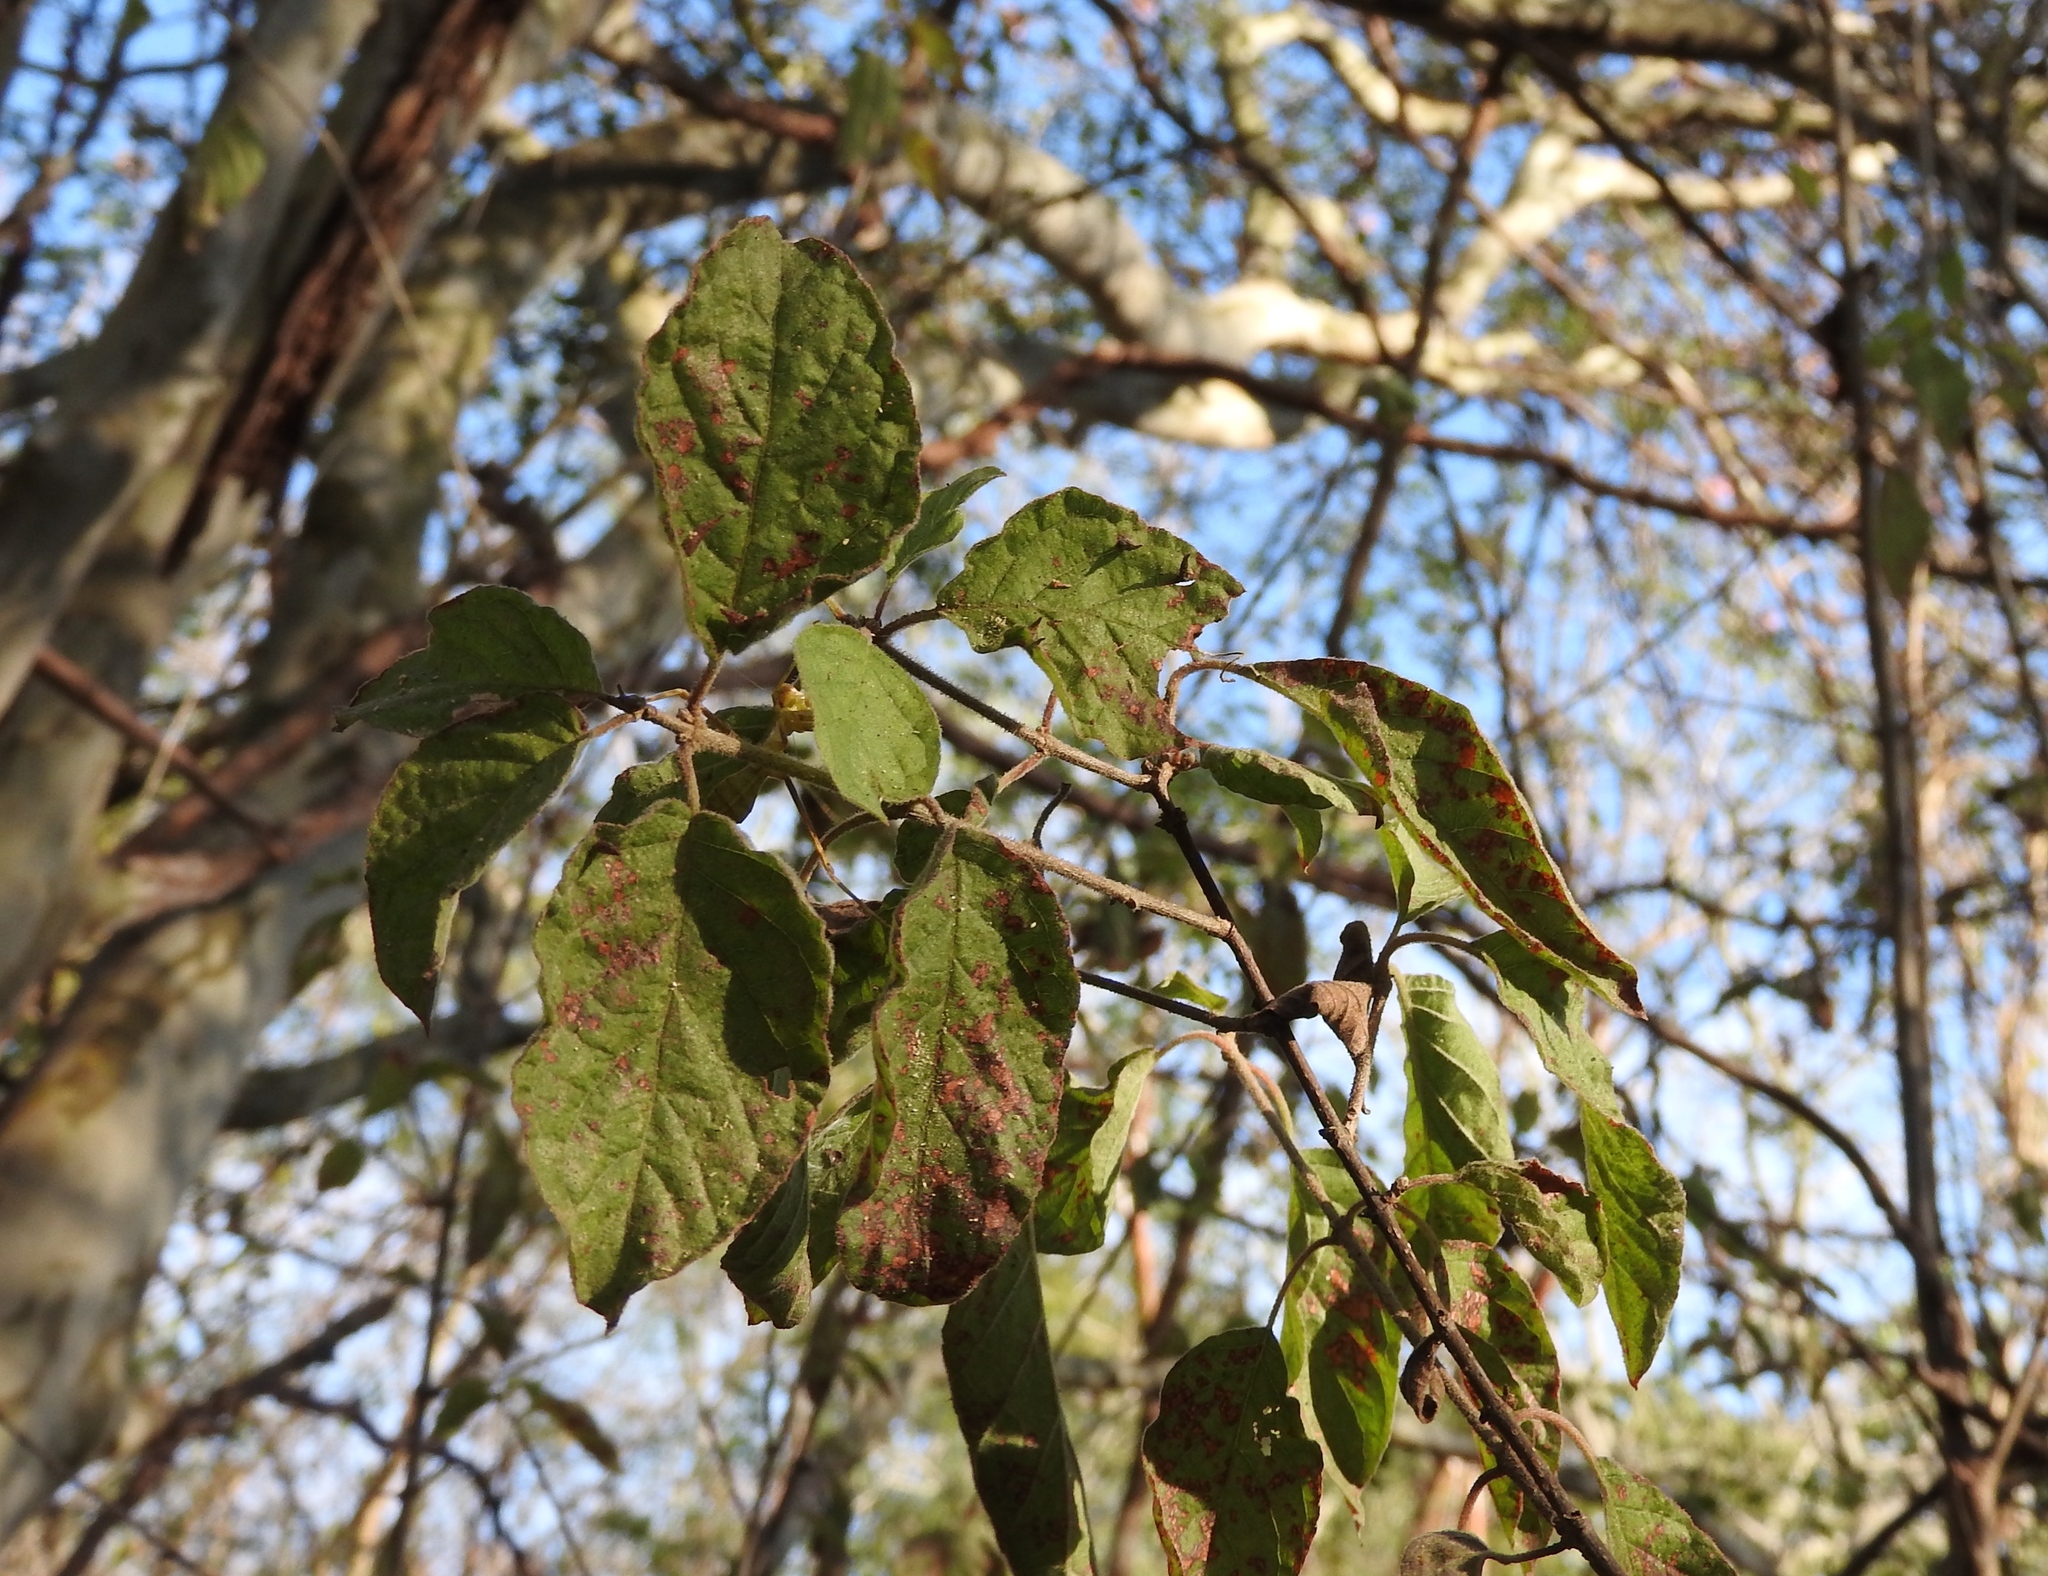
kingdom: Plantae
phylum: Tracheophyta
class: Magnoliopsida
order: Gentianales
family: Rubiaceae
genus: Guettarda
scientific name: Guettarda elliptica
